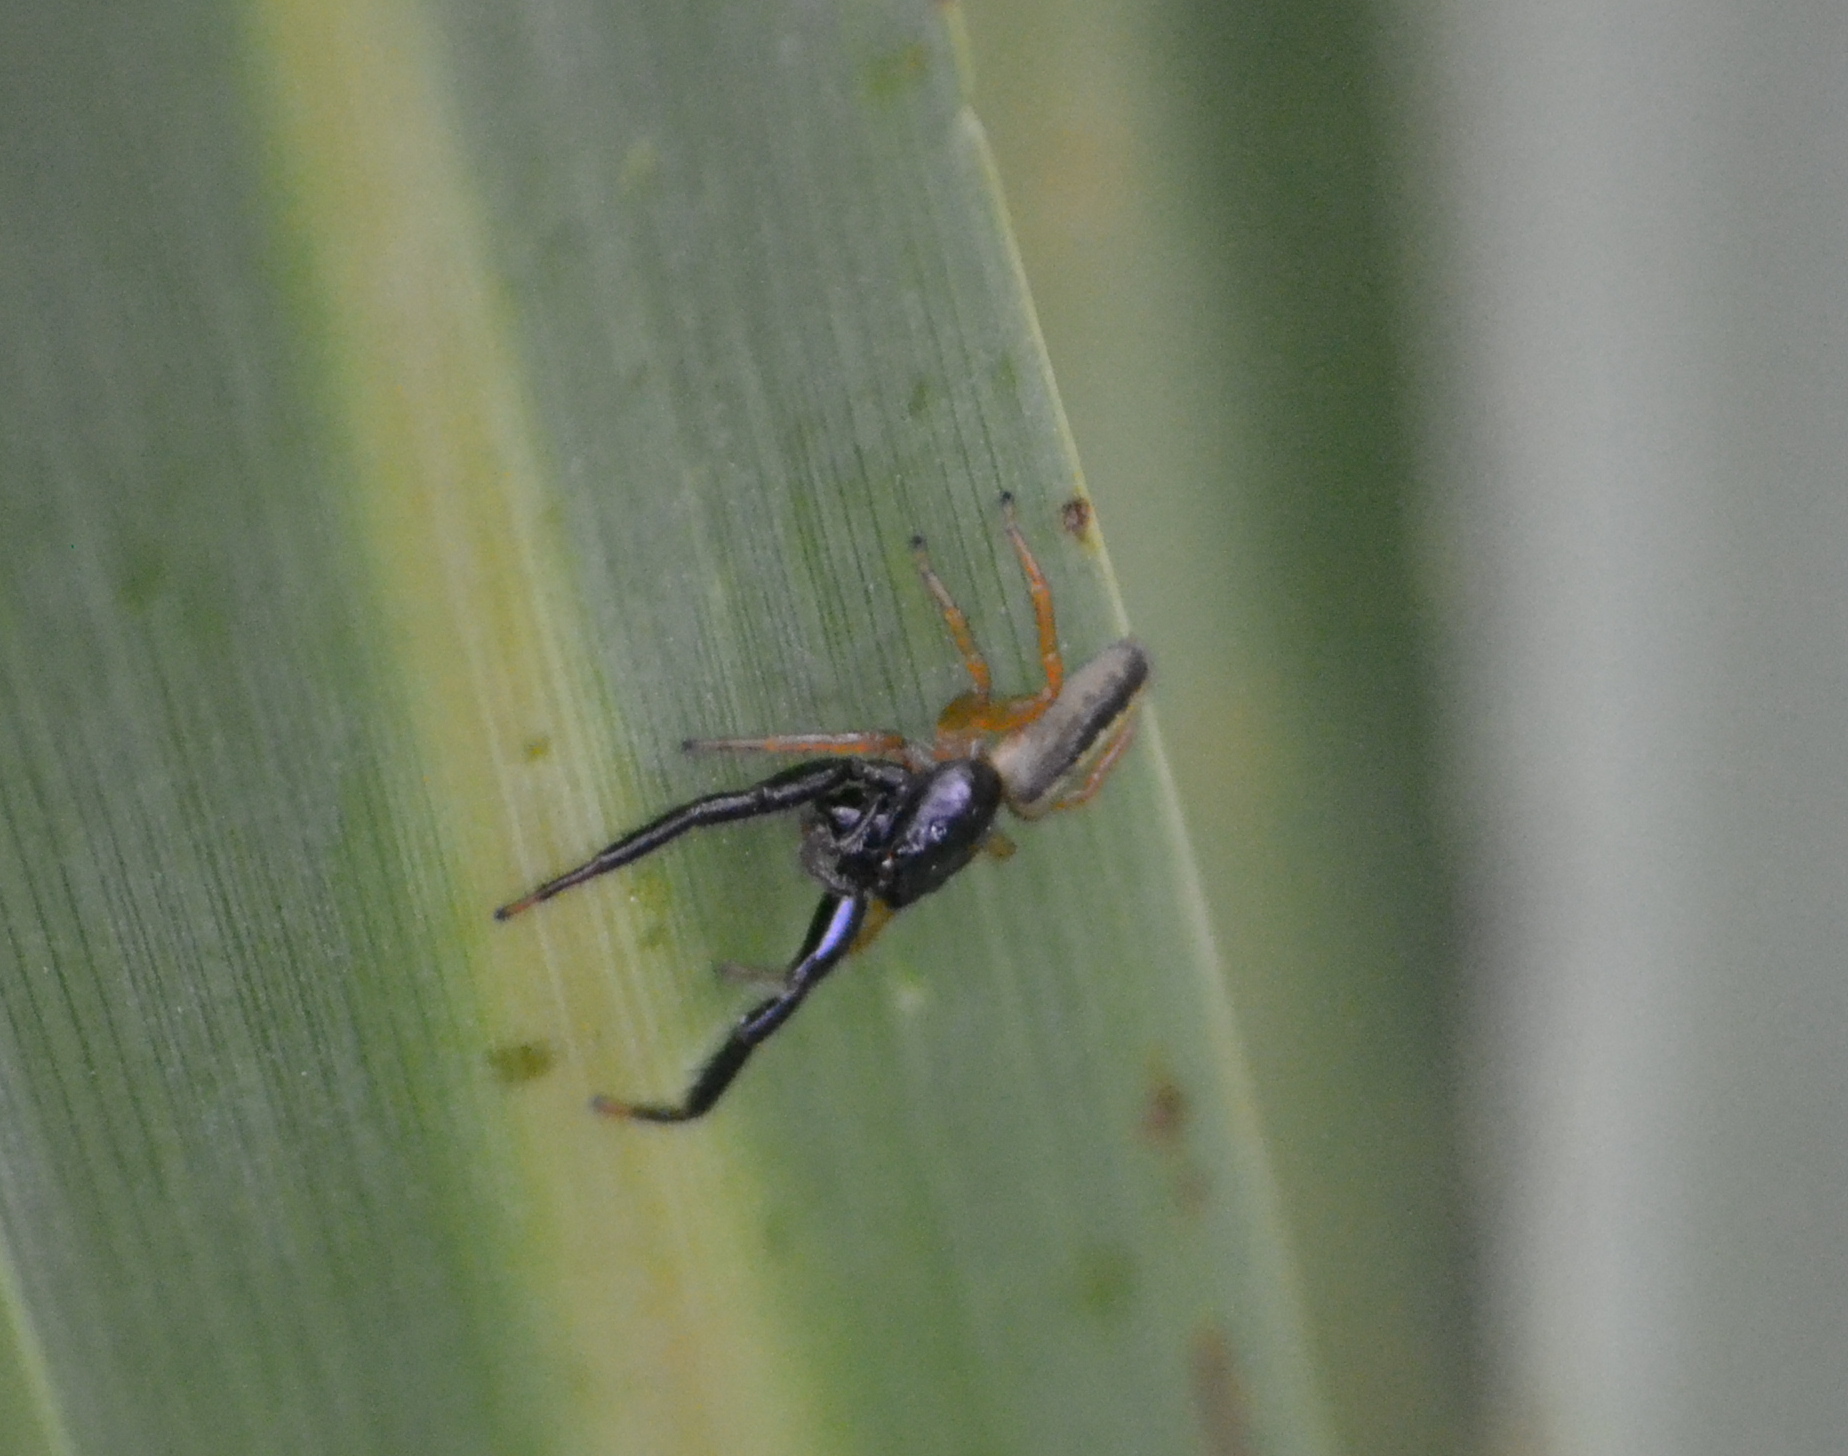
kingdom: Animalia
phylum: Arthropoda
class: Arachnida
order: Araneae
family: Salticidae
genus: Trite
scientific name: Trite planiceps
